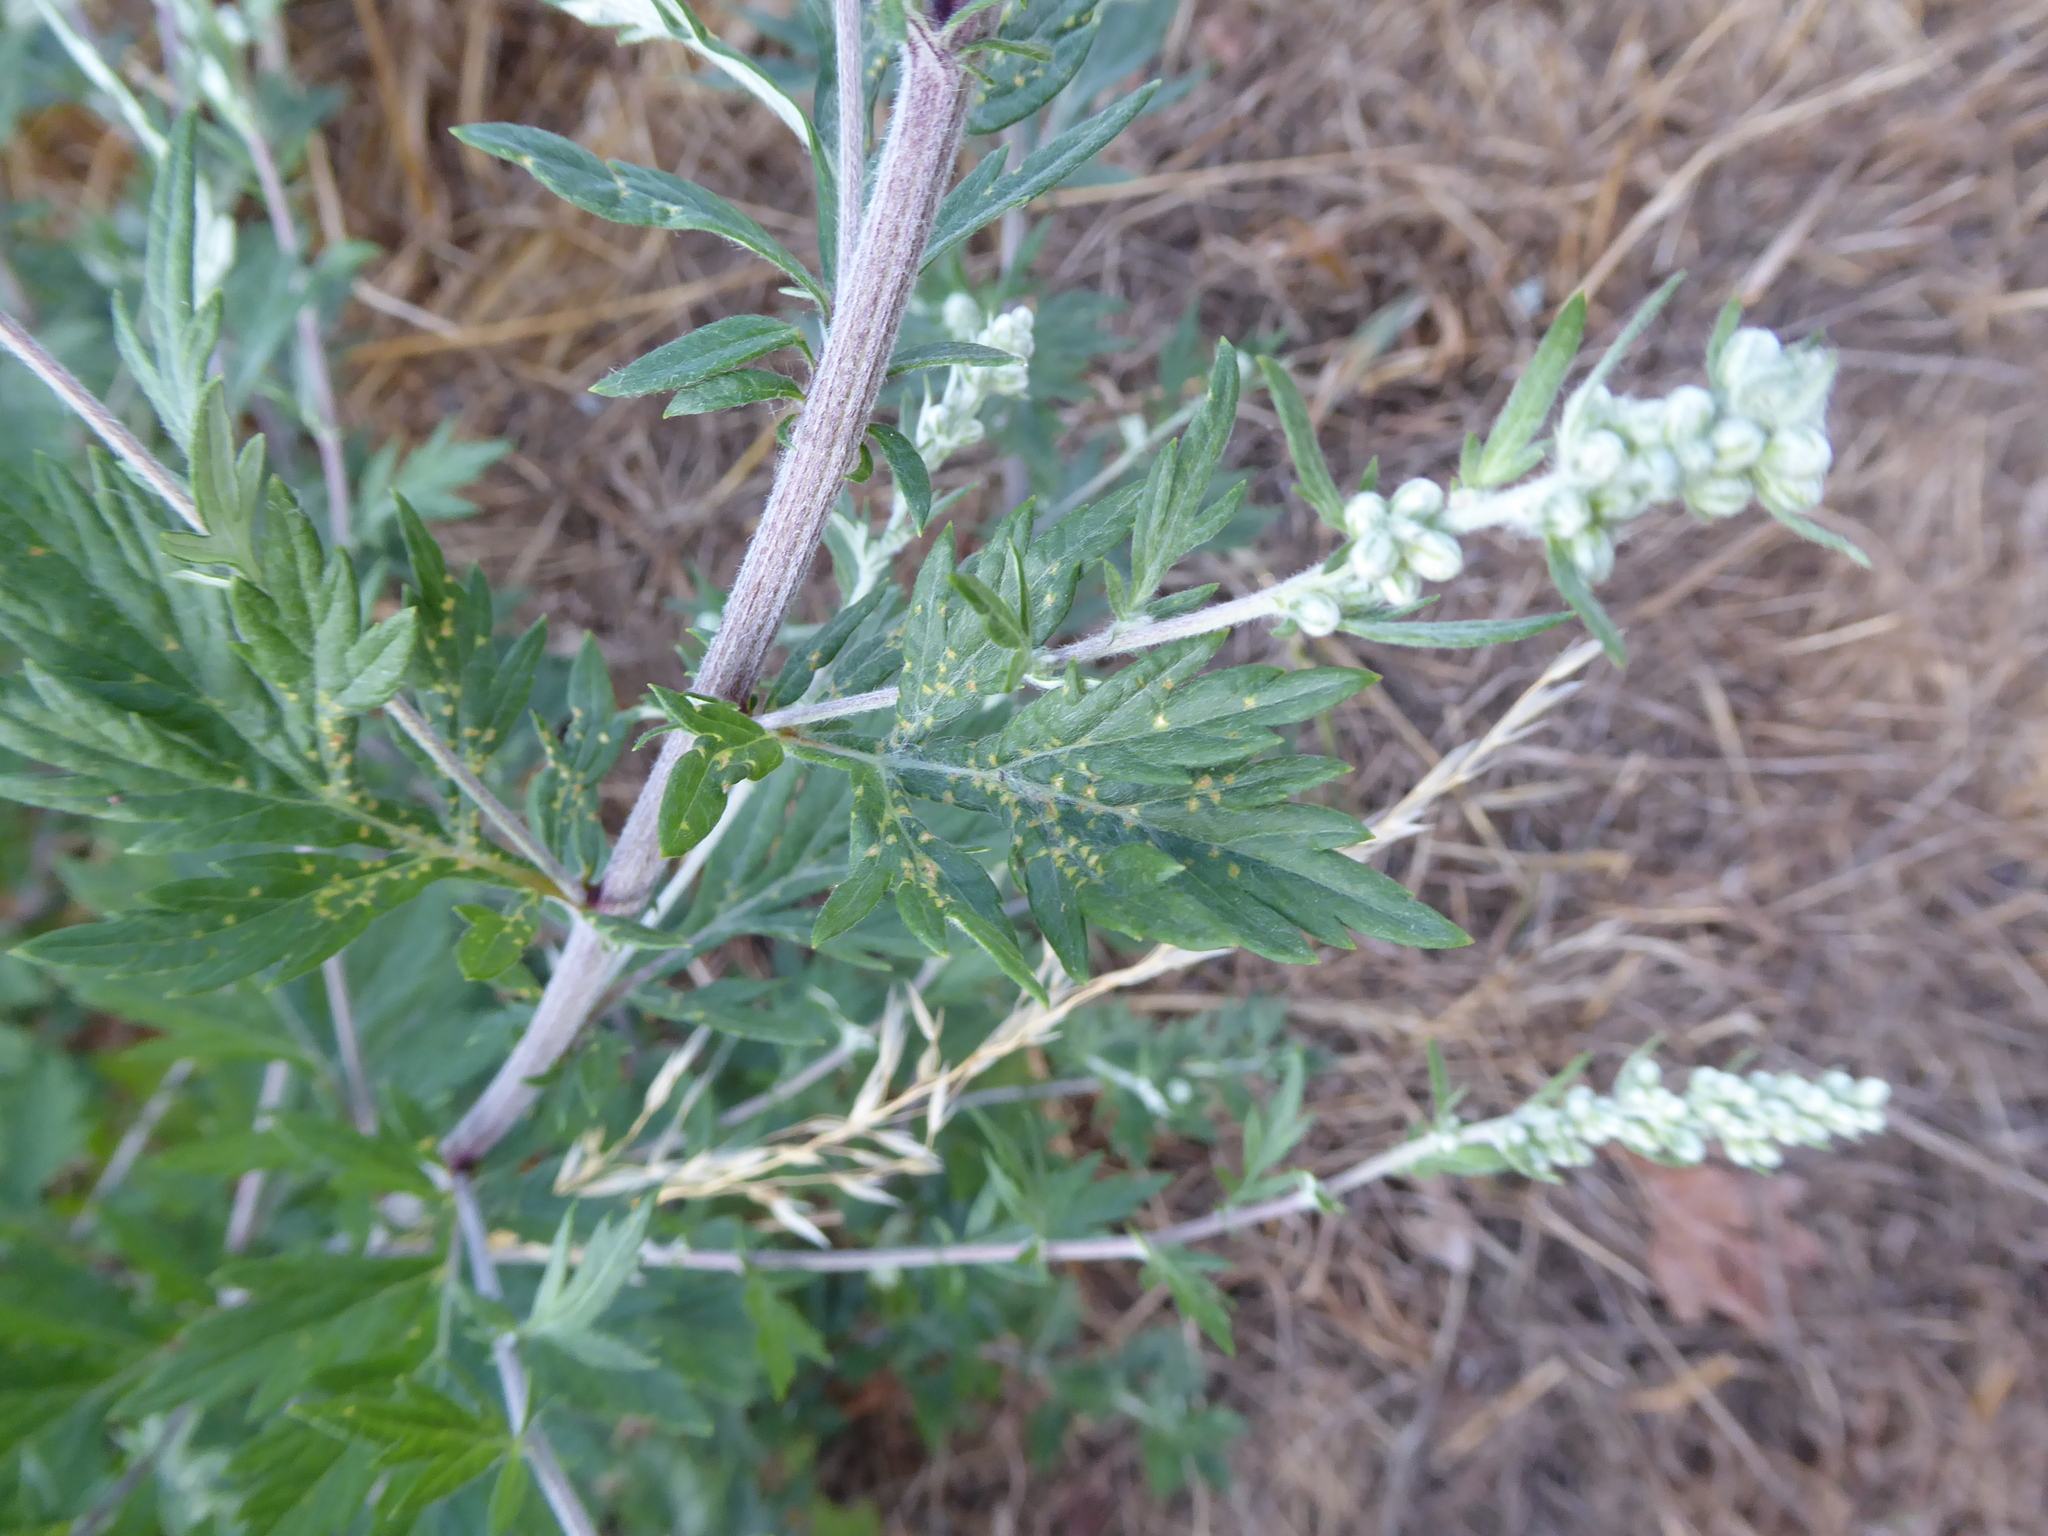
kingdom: Plantae
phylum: Tracheophyta
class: Magnoliopsida
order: Asterales
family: Asteraceae
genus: Artemisia
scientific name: Artemisia vulgaris
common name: Mugwort
